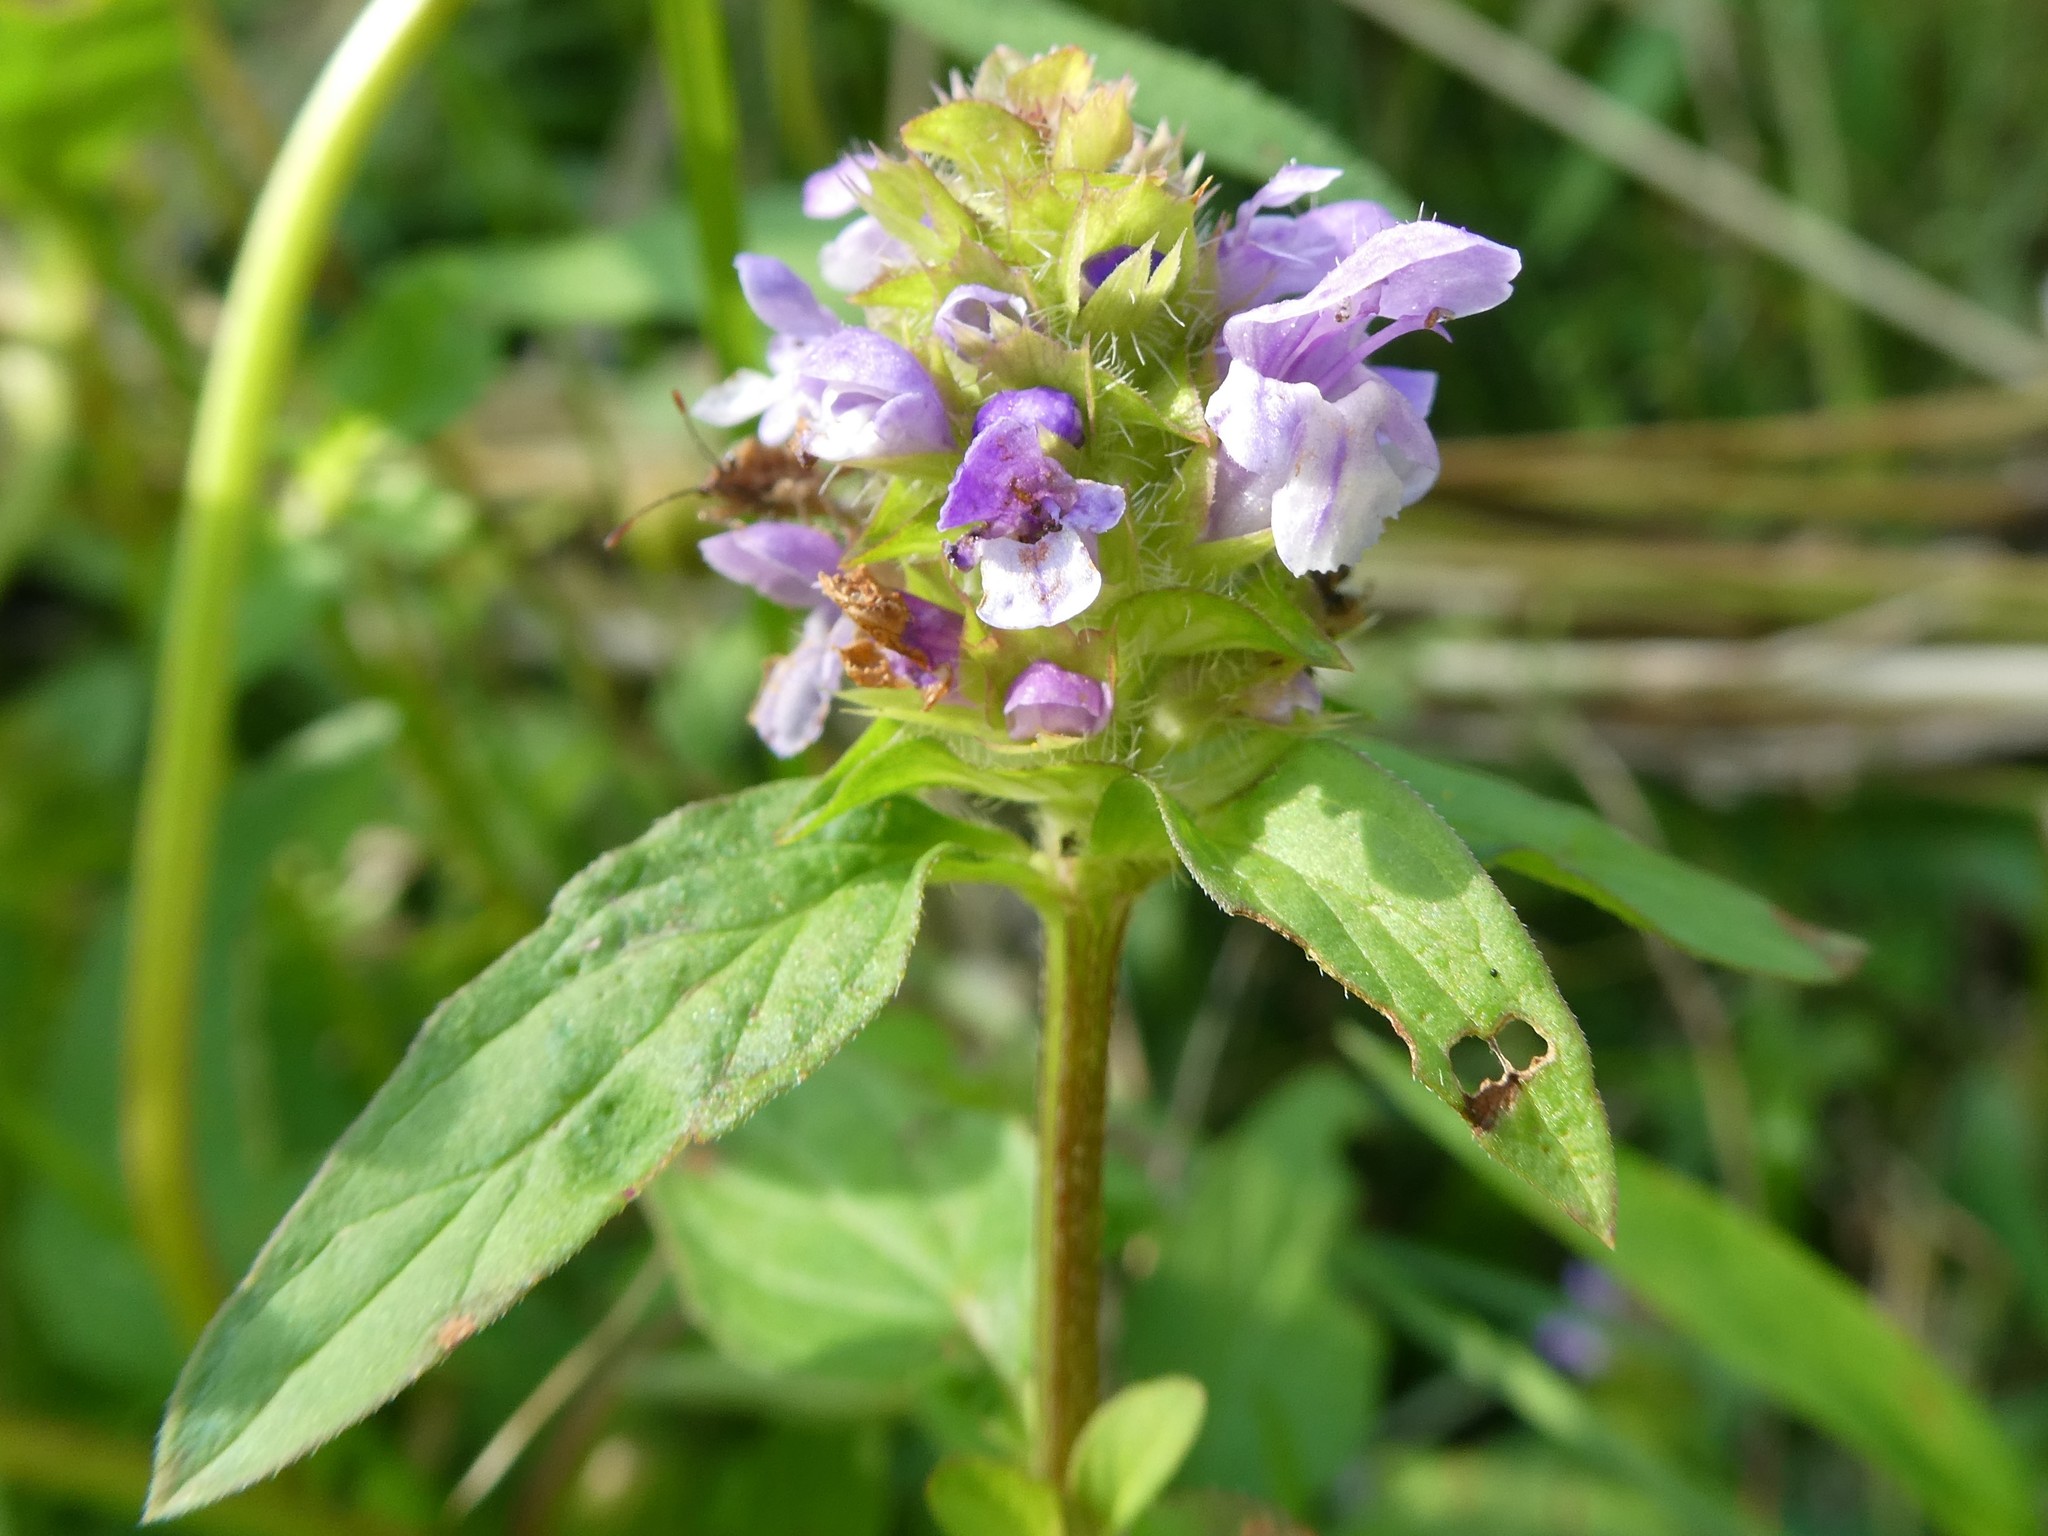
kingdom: Plantae
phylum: Tracheophyta
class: Magnoliopsida
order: Lamiales
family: Lamiaceae
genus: Prunella
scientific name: Prunella vulgaris
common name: Heal-all
